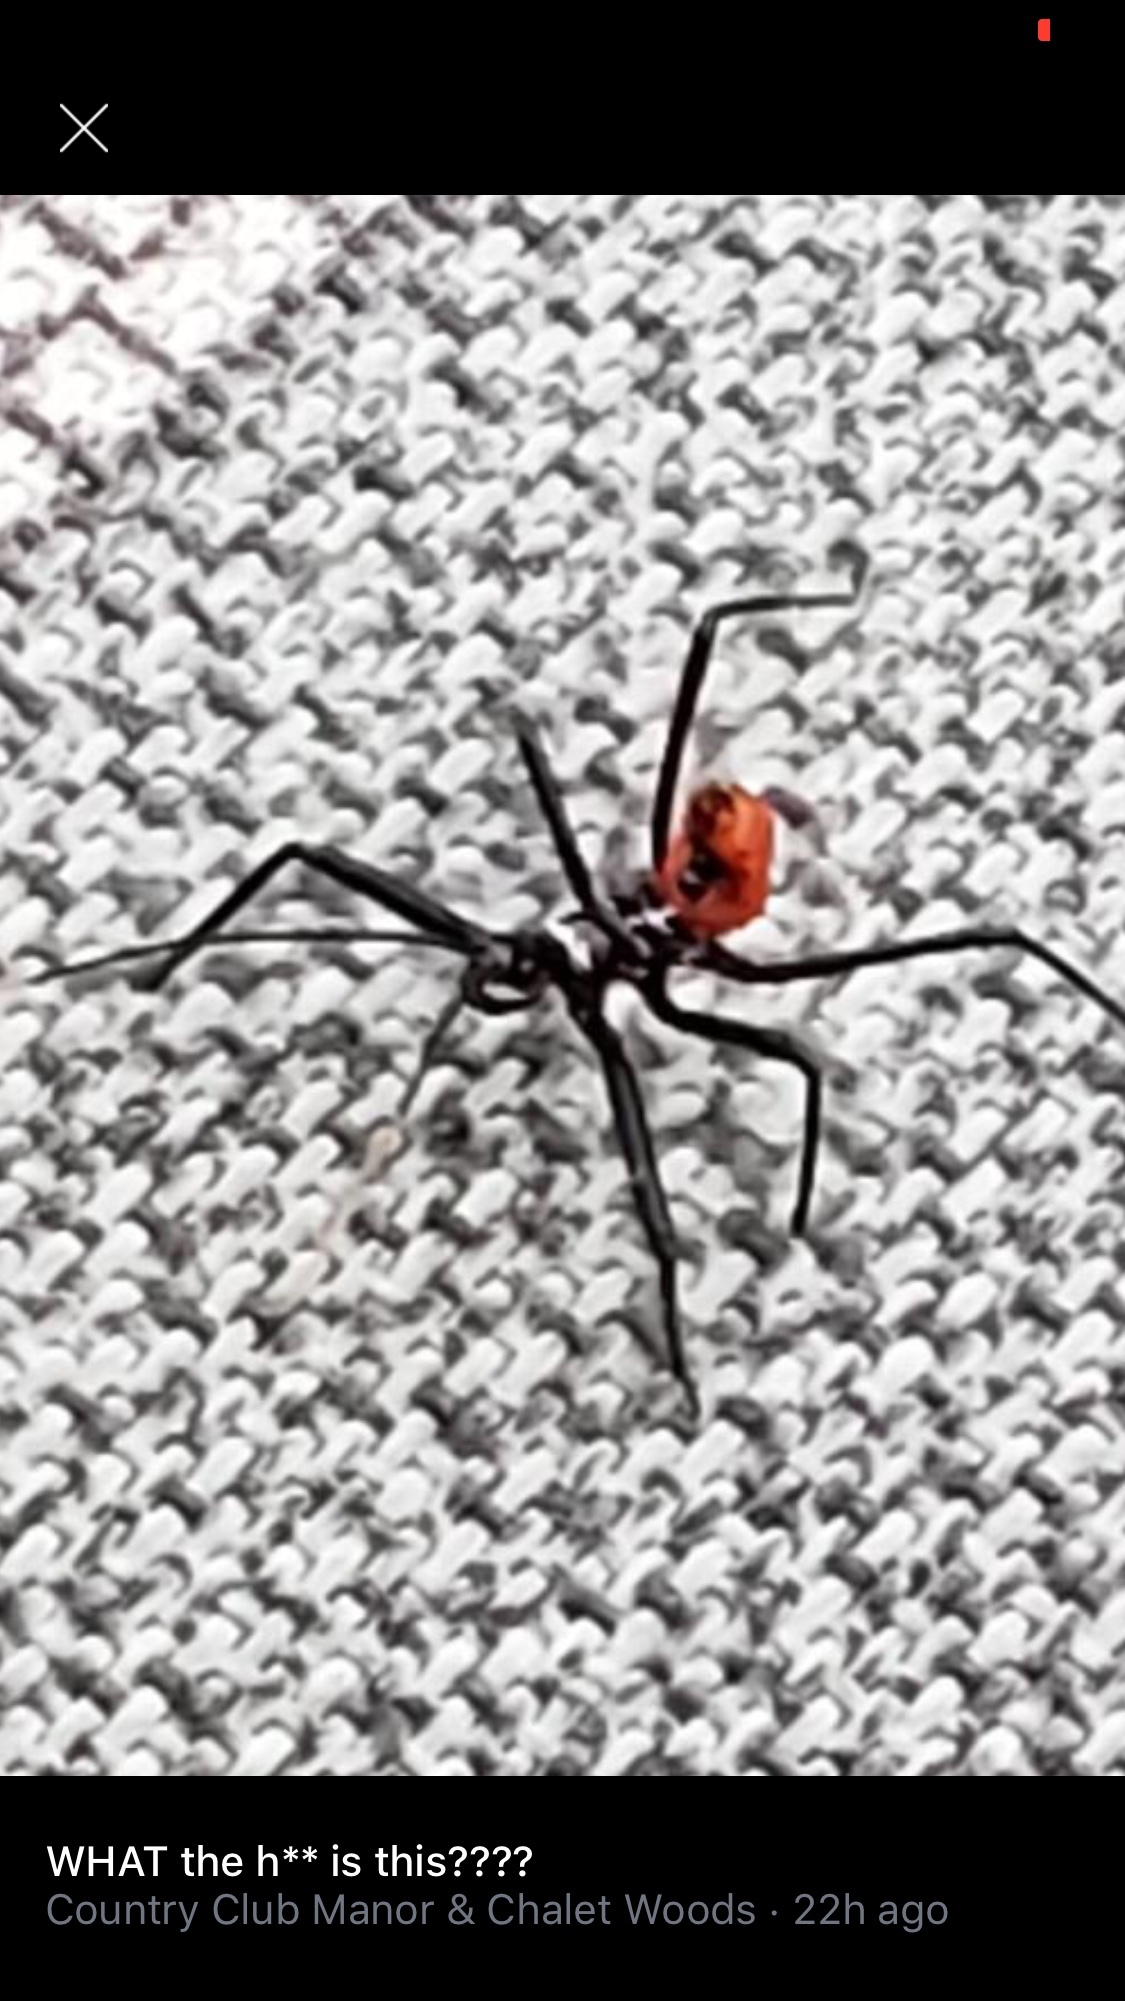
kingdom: Animalia
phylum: Arthropoda
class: Insecta
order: Hemiptera
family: Reduviidae
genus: Arilus
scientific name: Arilus cristatus
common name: North american wheel bug
